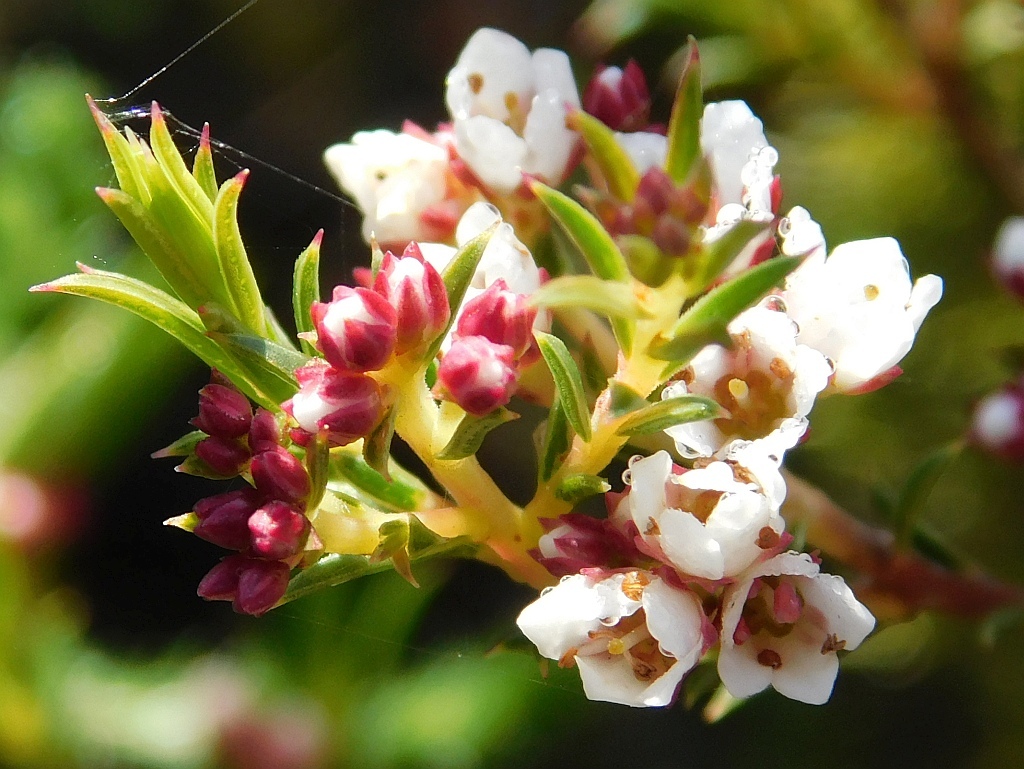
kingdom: Plantae
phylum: Tracheophyta
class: Magnoliopsida
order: Sapindales
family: Rutaceae
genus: Diosma
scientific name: Diosma hirsuta
